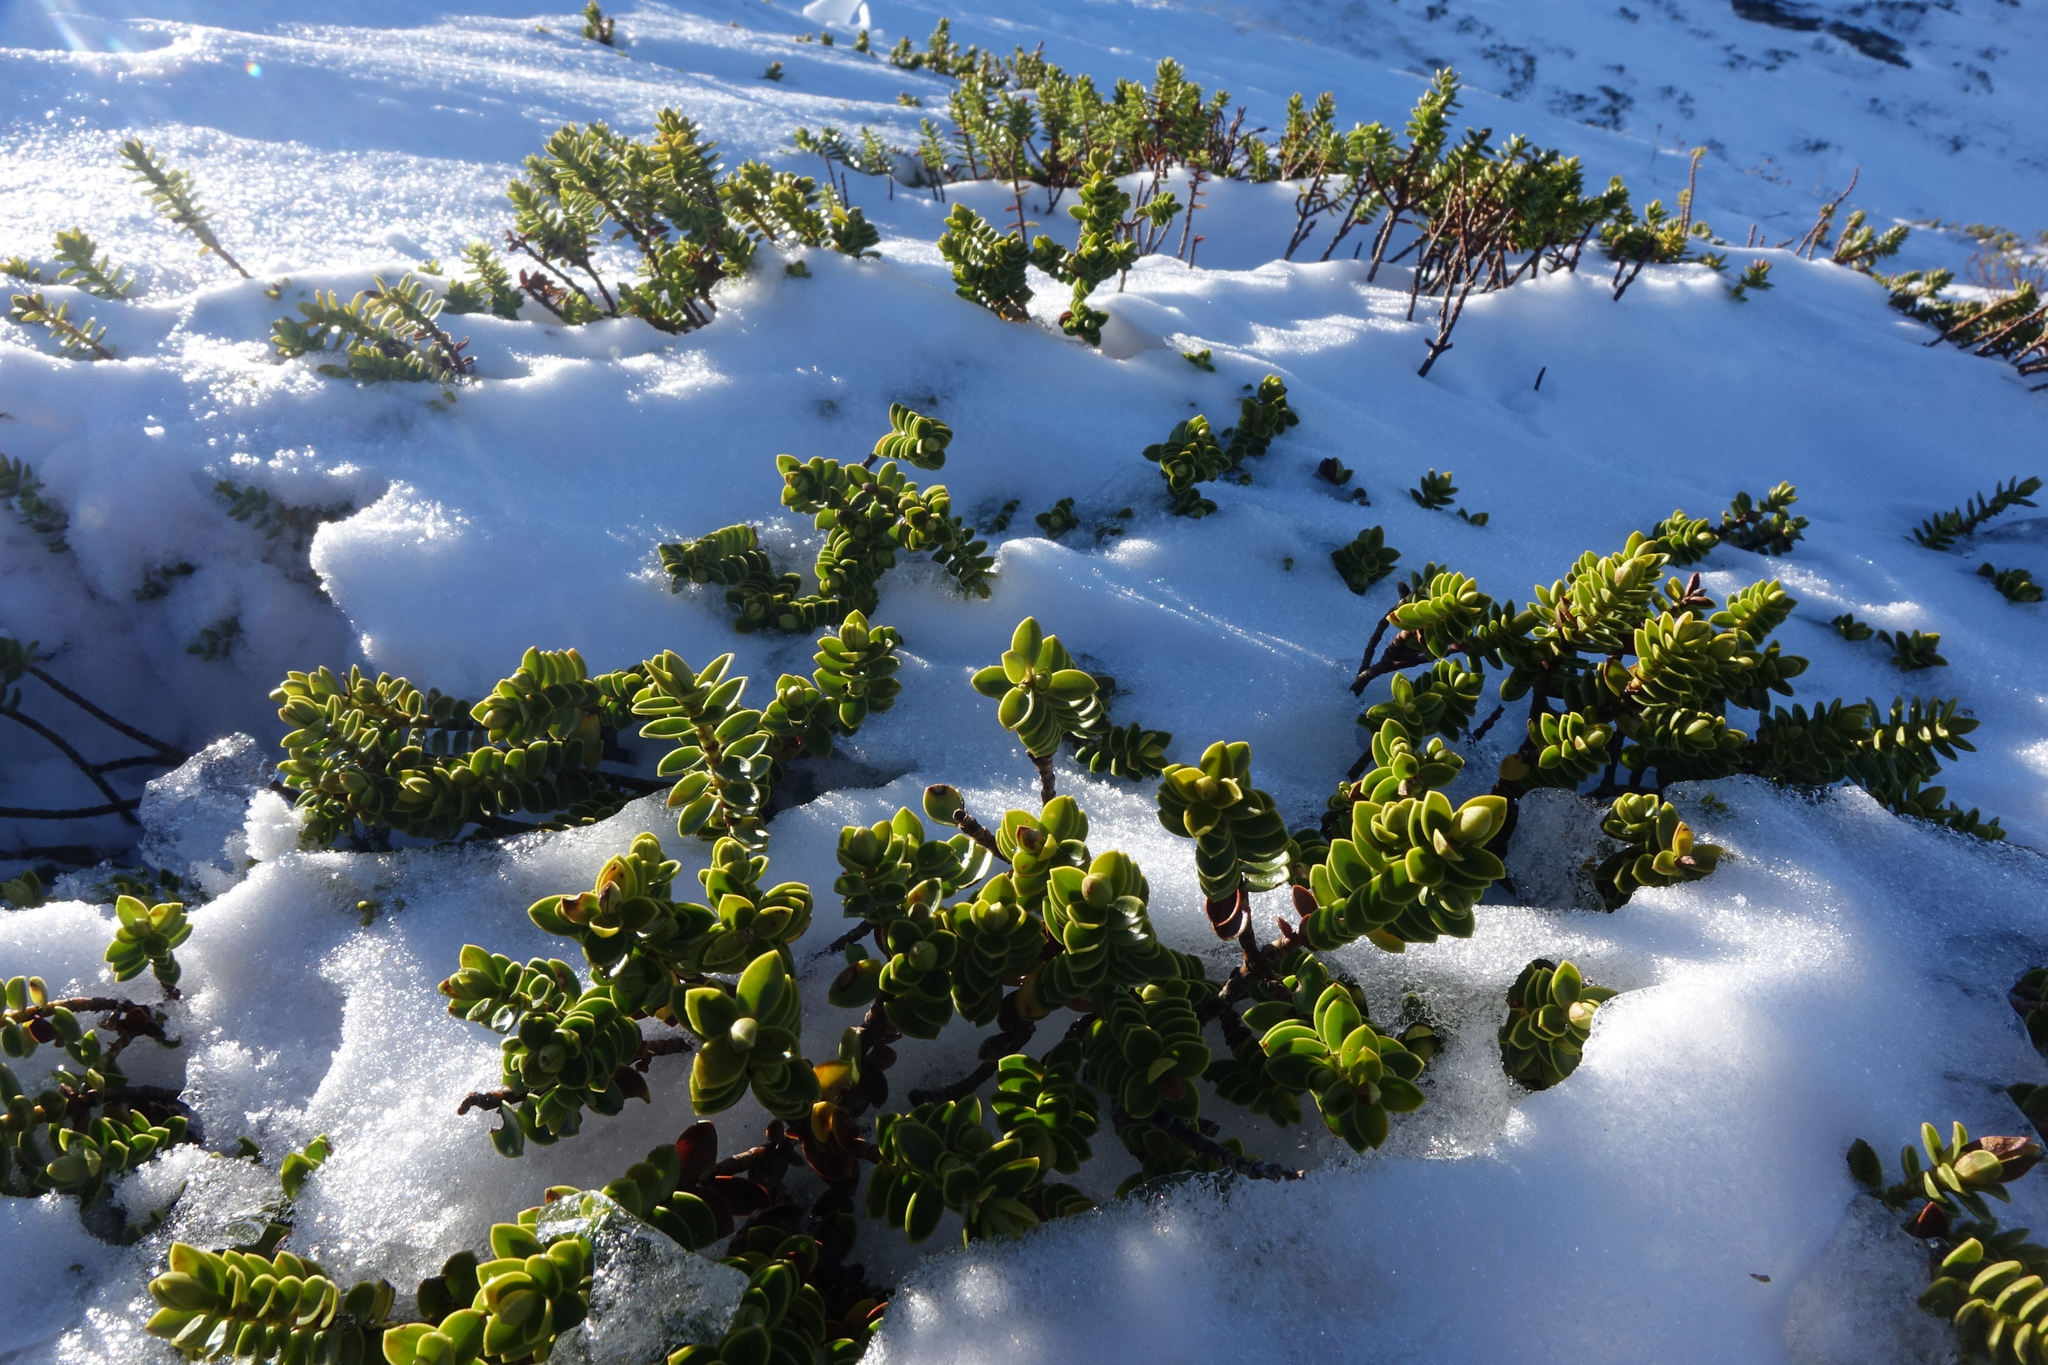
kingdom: Plantae
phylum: Tracheophyta
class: Magnoliopsida
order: Lamiales
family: Plantaginaceae
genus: Veronica
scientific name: Veronica odora
